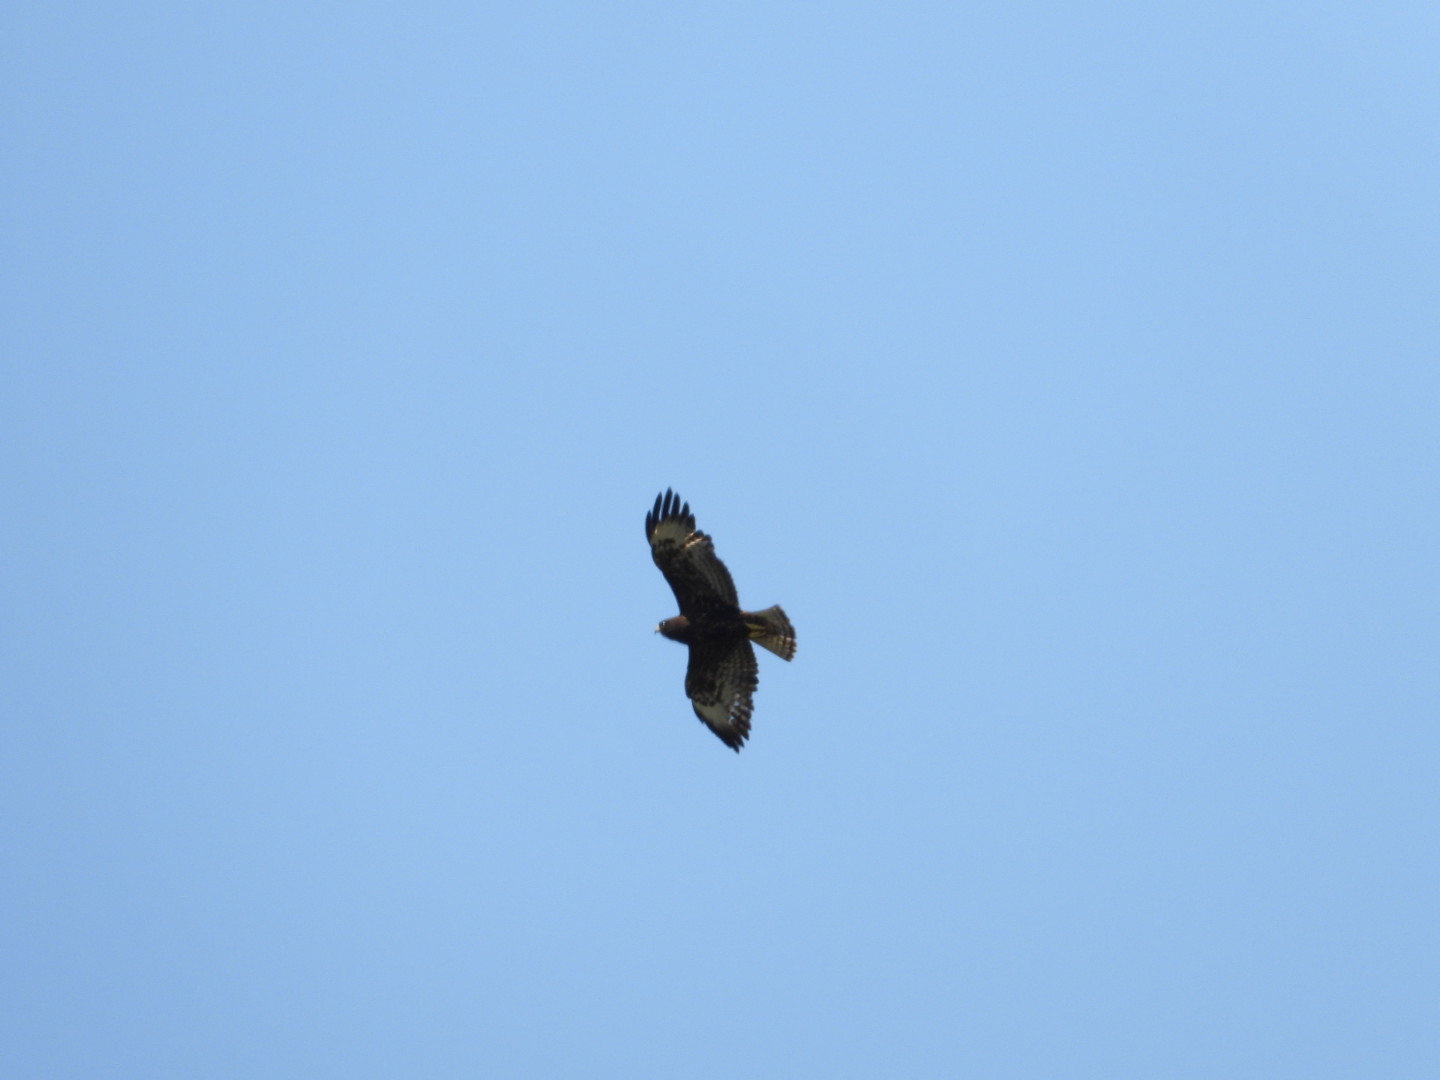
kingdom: Animalia
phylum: Chordata
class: Aves
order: Accipitriformes
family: Accipitridae
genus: Buteo
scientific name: Buteo brachyurus
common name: Short-tailed hawk
